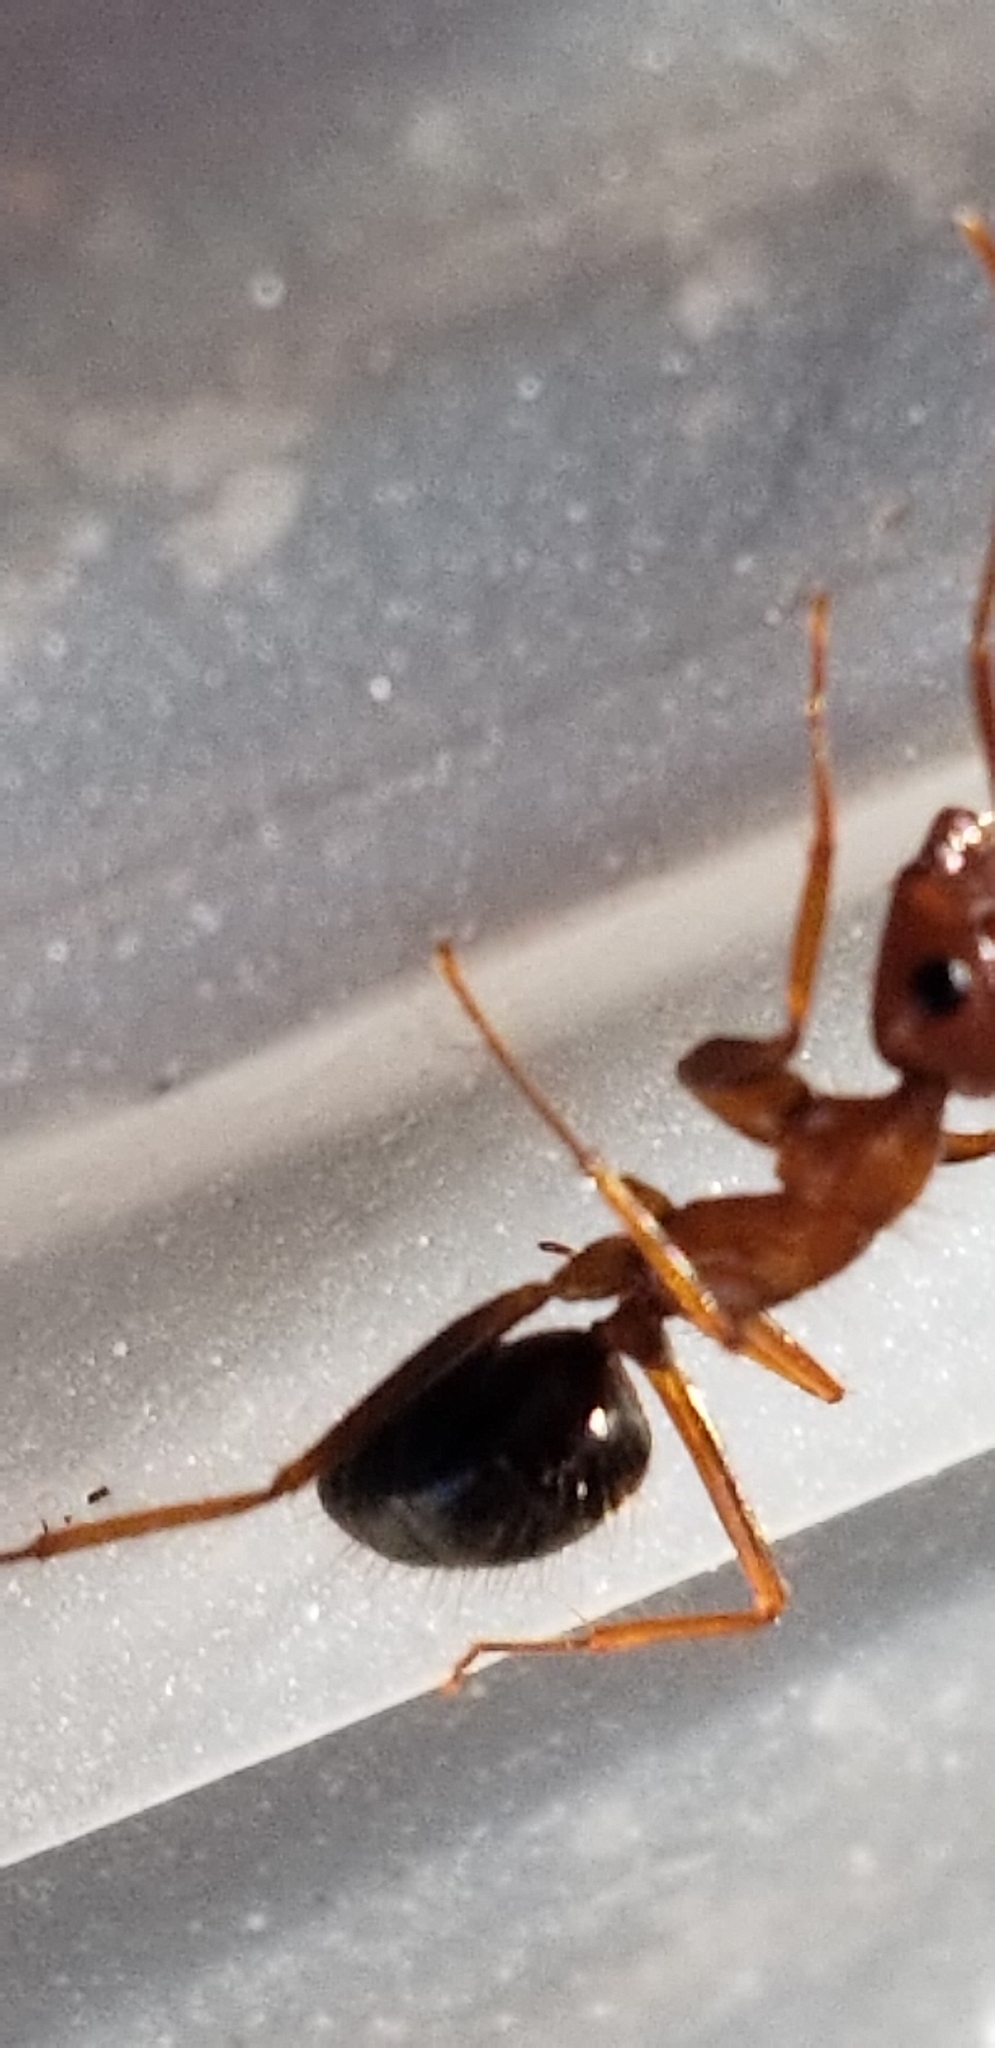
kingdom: Animalia
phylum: Arthropoda
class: Insecta
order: Hymenoptera
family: Formicidae
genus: Camponotus
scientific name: Camponotus floridanus
